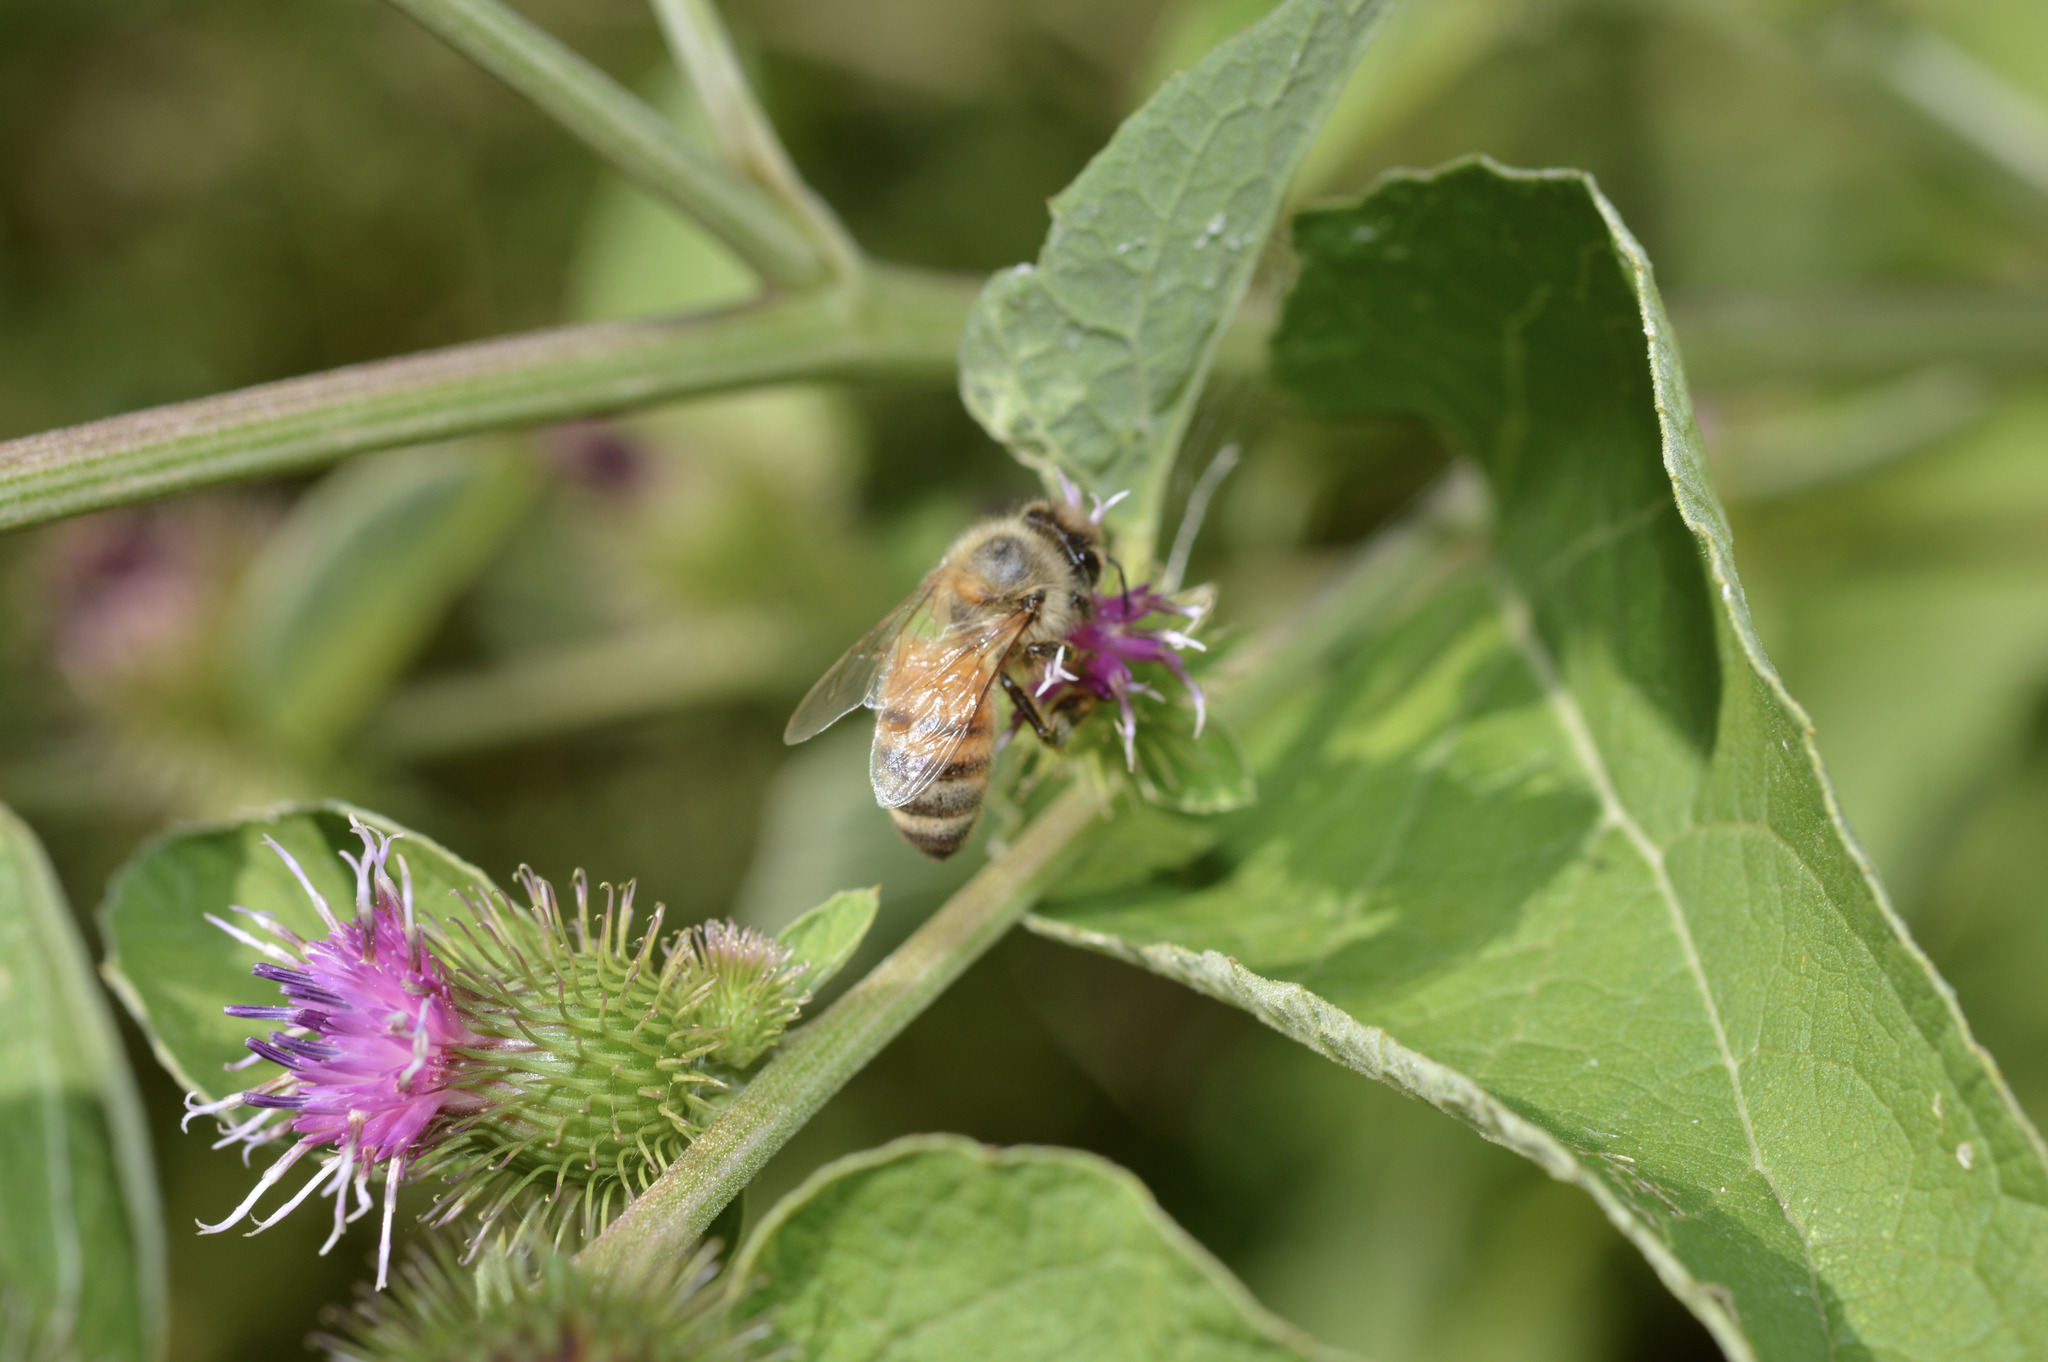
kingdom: Animalia
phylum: Arthropoda
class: Insecta
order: Hymenoptera
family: Apidae
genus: Apis
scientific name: Apis mellifera
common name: Honey bee
